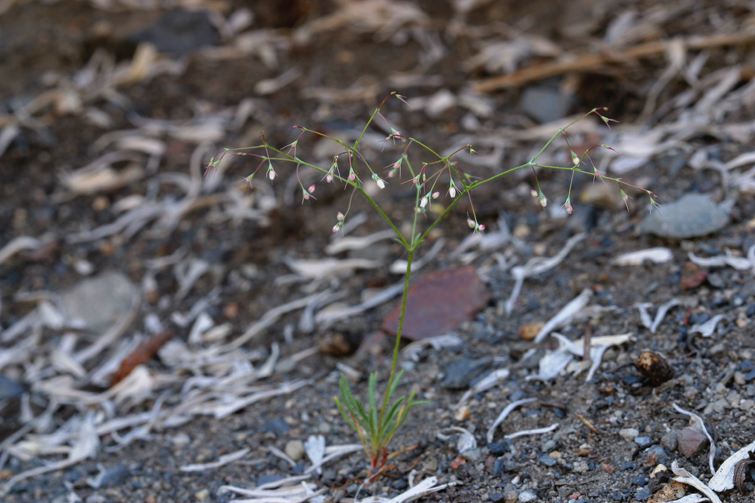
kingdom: Plantae
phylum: Tracheophyta
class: Magnoliopsida
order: Caryophyllales
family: Polygonaceae
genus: Oxytheca
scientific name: Oxytheca dendroidea
